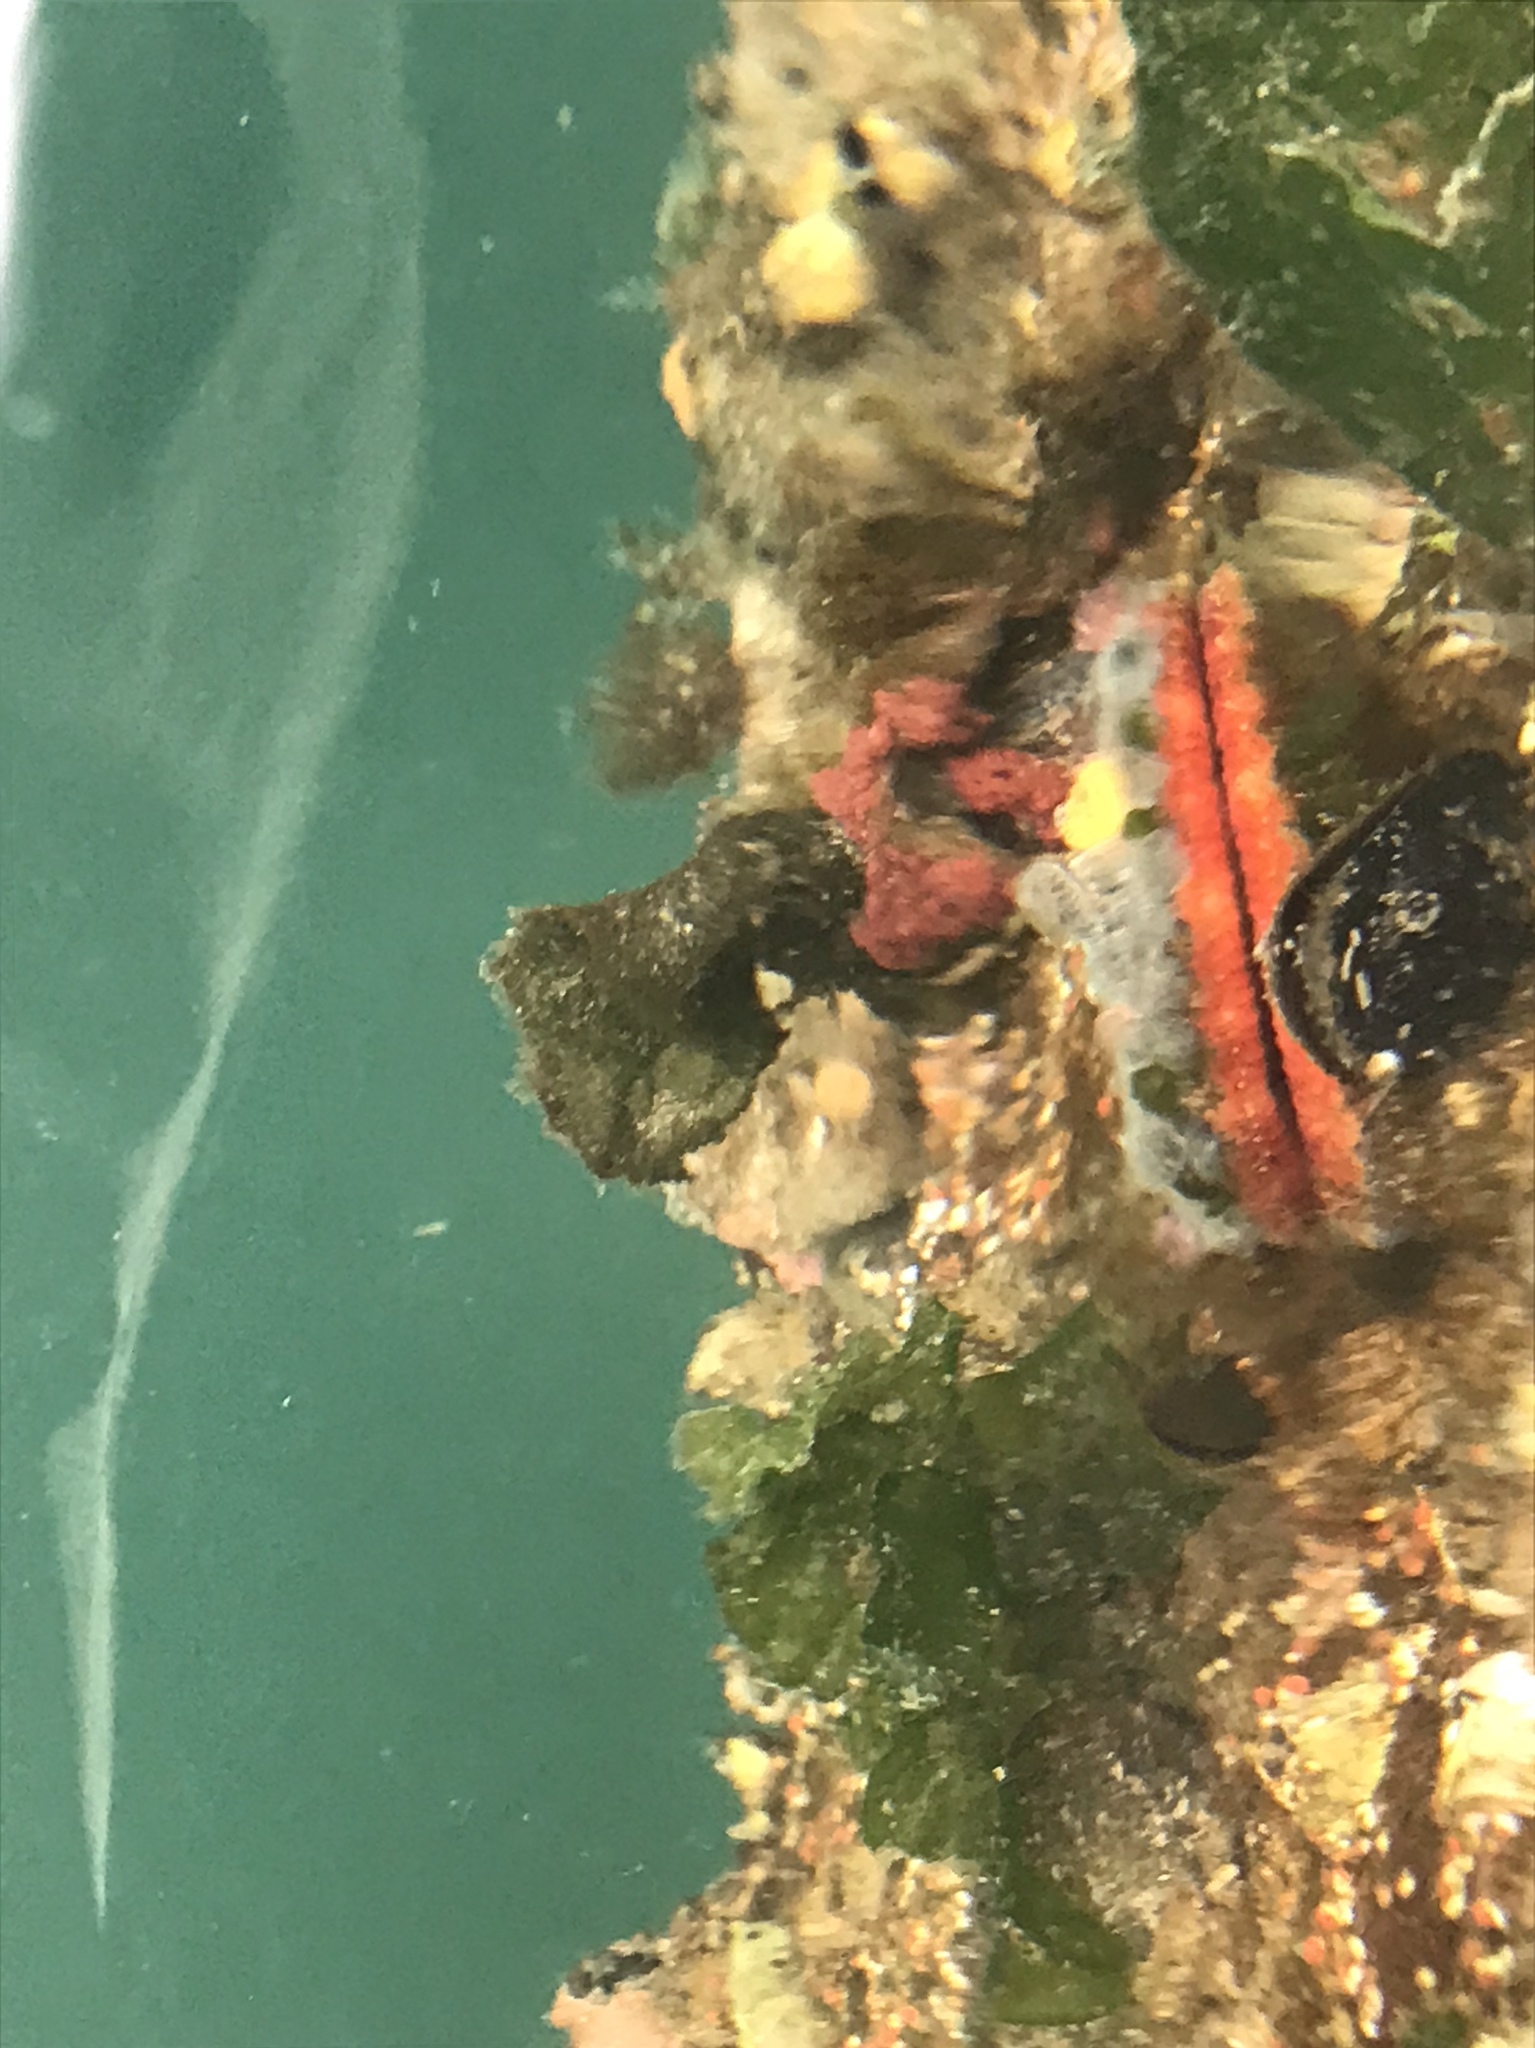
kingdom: Animalia
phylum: Mollusca
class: Bivalvia
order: Pectinida
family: Pectinidae
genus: Crassadoma
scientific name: Crassadoma gigantea
